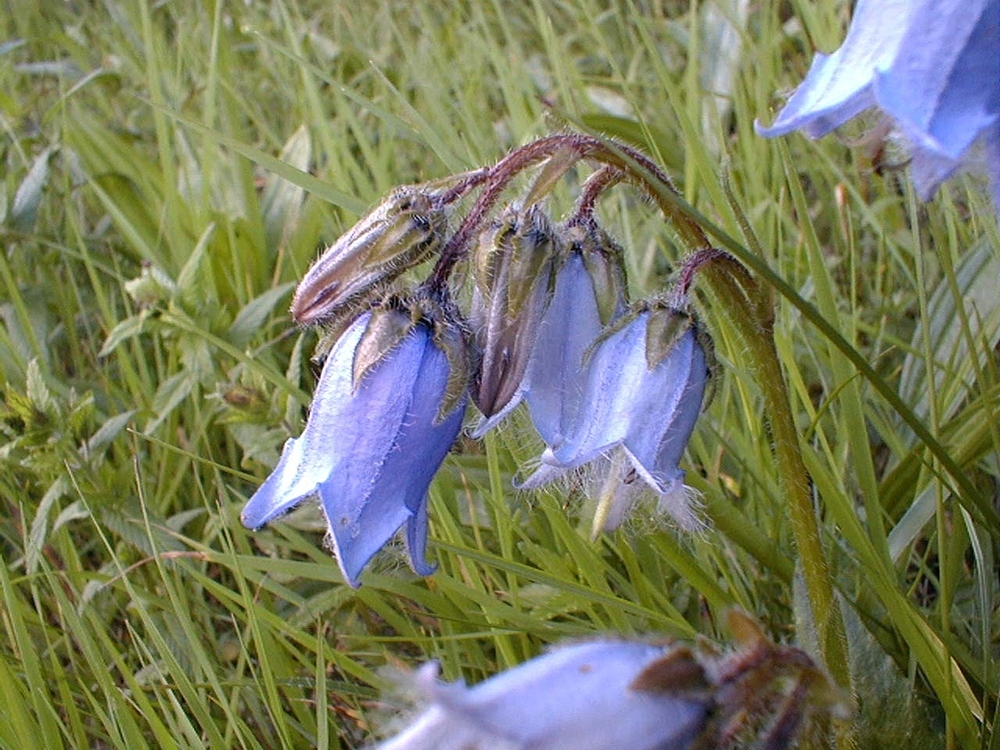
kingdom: Plantae
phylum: Tracheophyta
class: Magnoliopsida
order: Asterales
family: Campanulaceae
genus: Campanula
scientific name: Campanula barbata
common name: Bearded bellflower
